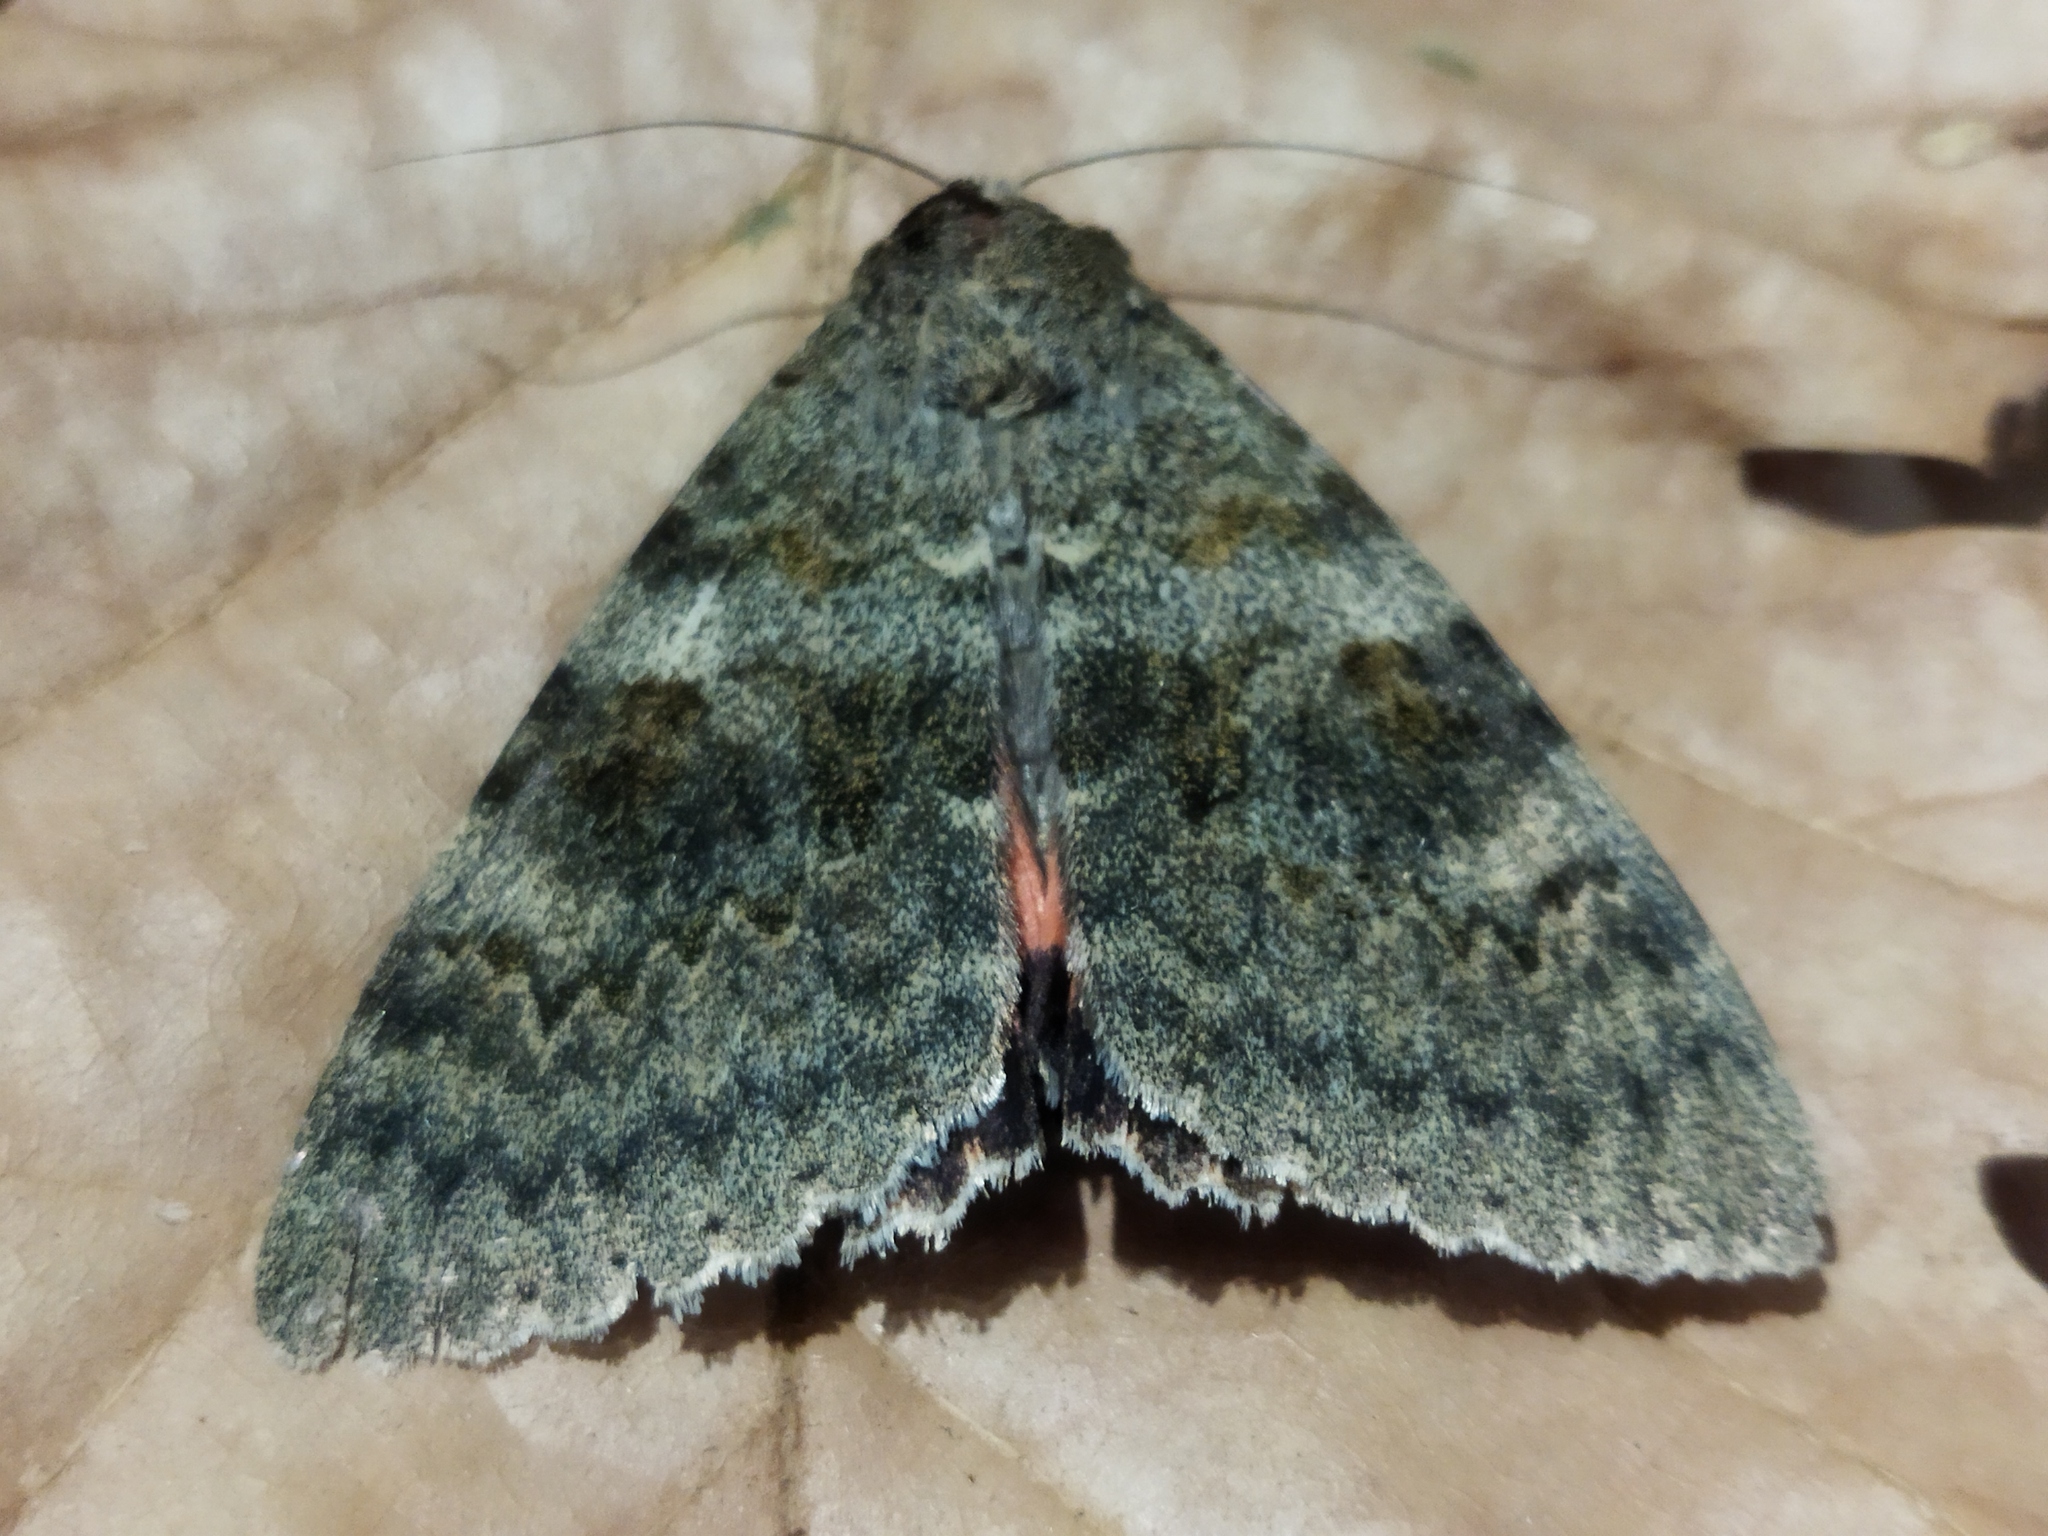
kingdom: Animalia
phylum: Arthropoda
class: Insecta
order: Lepidoptera
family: Erebidae
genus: Catocala
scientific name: Catocala elocata
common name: French red underwing
